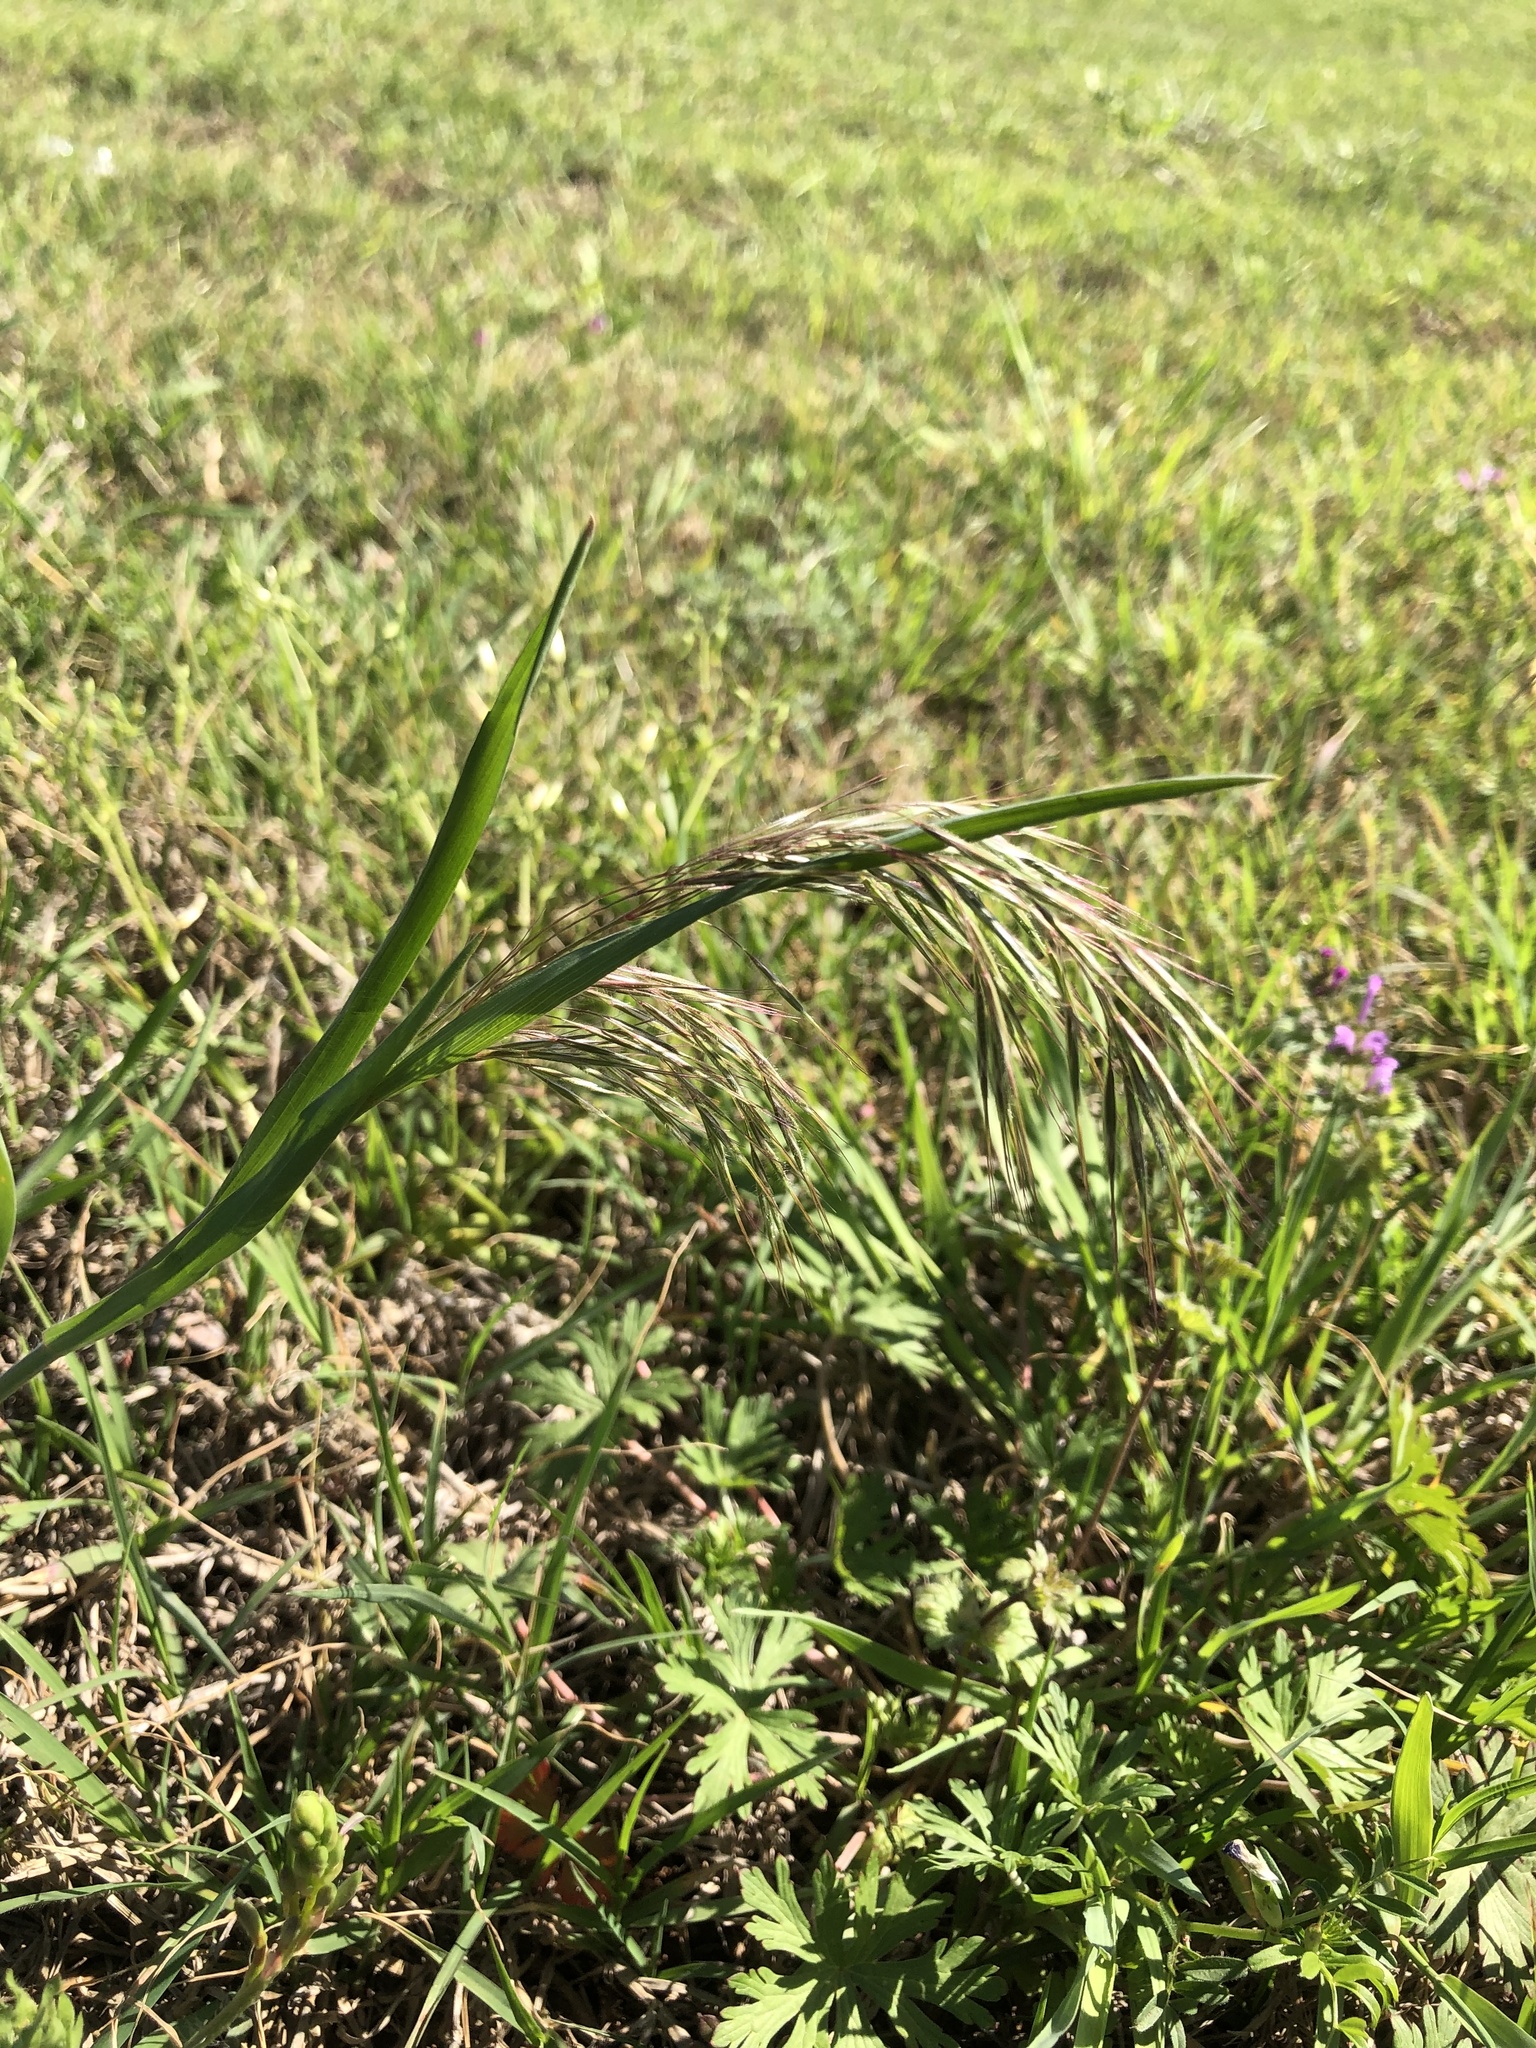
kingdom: Plantae
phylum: Tracheophyta
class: Liliopsida
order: Poales
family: Poaceae
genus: Bromus
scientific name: Bromus tectorum
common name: Cheatgrass
